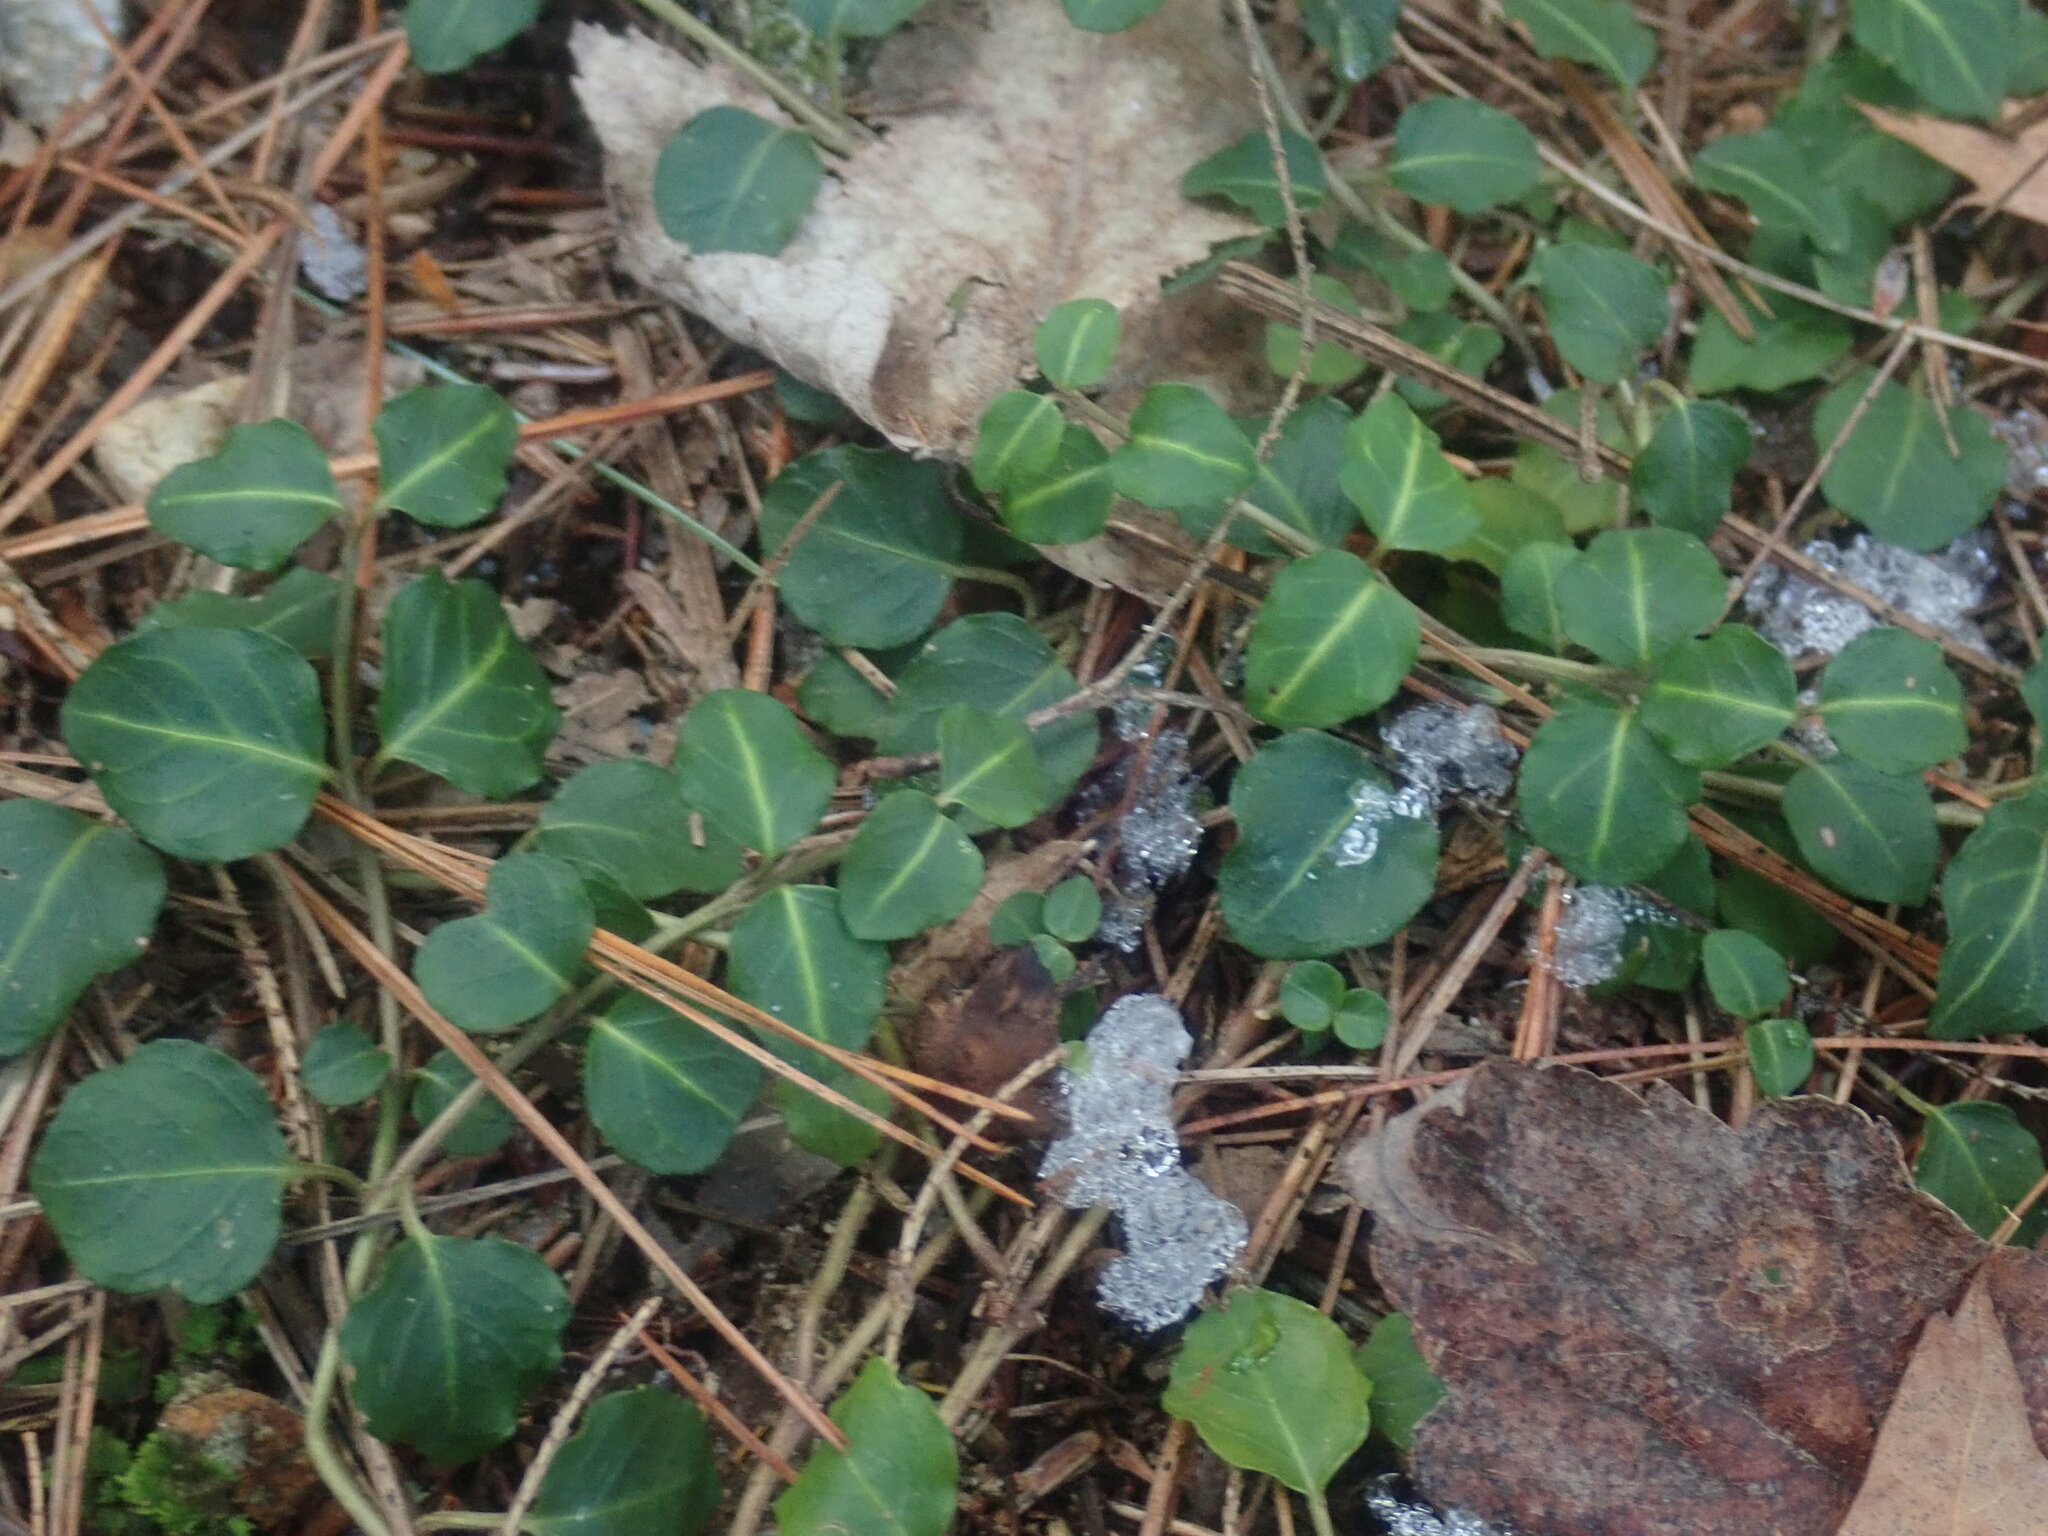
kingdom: Plantae
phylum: Tracheophyta
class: Magnoliopsida
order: Gentianales
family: Rubiaceae
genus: Mitchella
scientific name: Mitchella repens
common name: Partridge-berry
